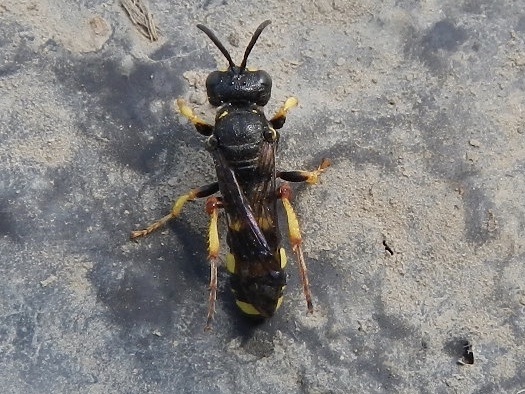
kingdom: Animalia
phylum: Arthropoda
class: Insecta
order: Hymenoptera
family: Crabronidae
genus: Cerceris
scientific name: Cerceris rybyensis
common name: Ornate tailed digger wasp
